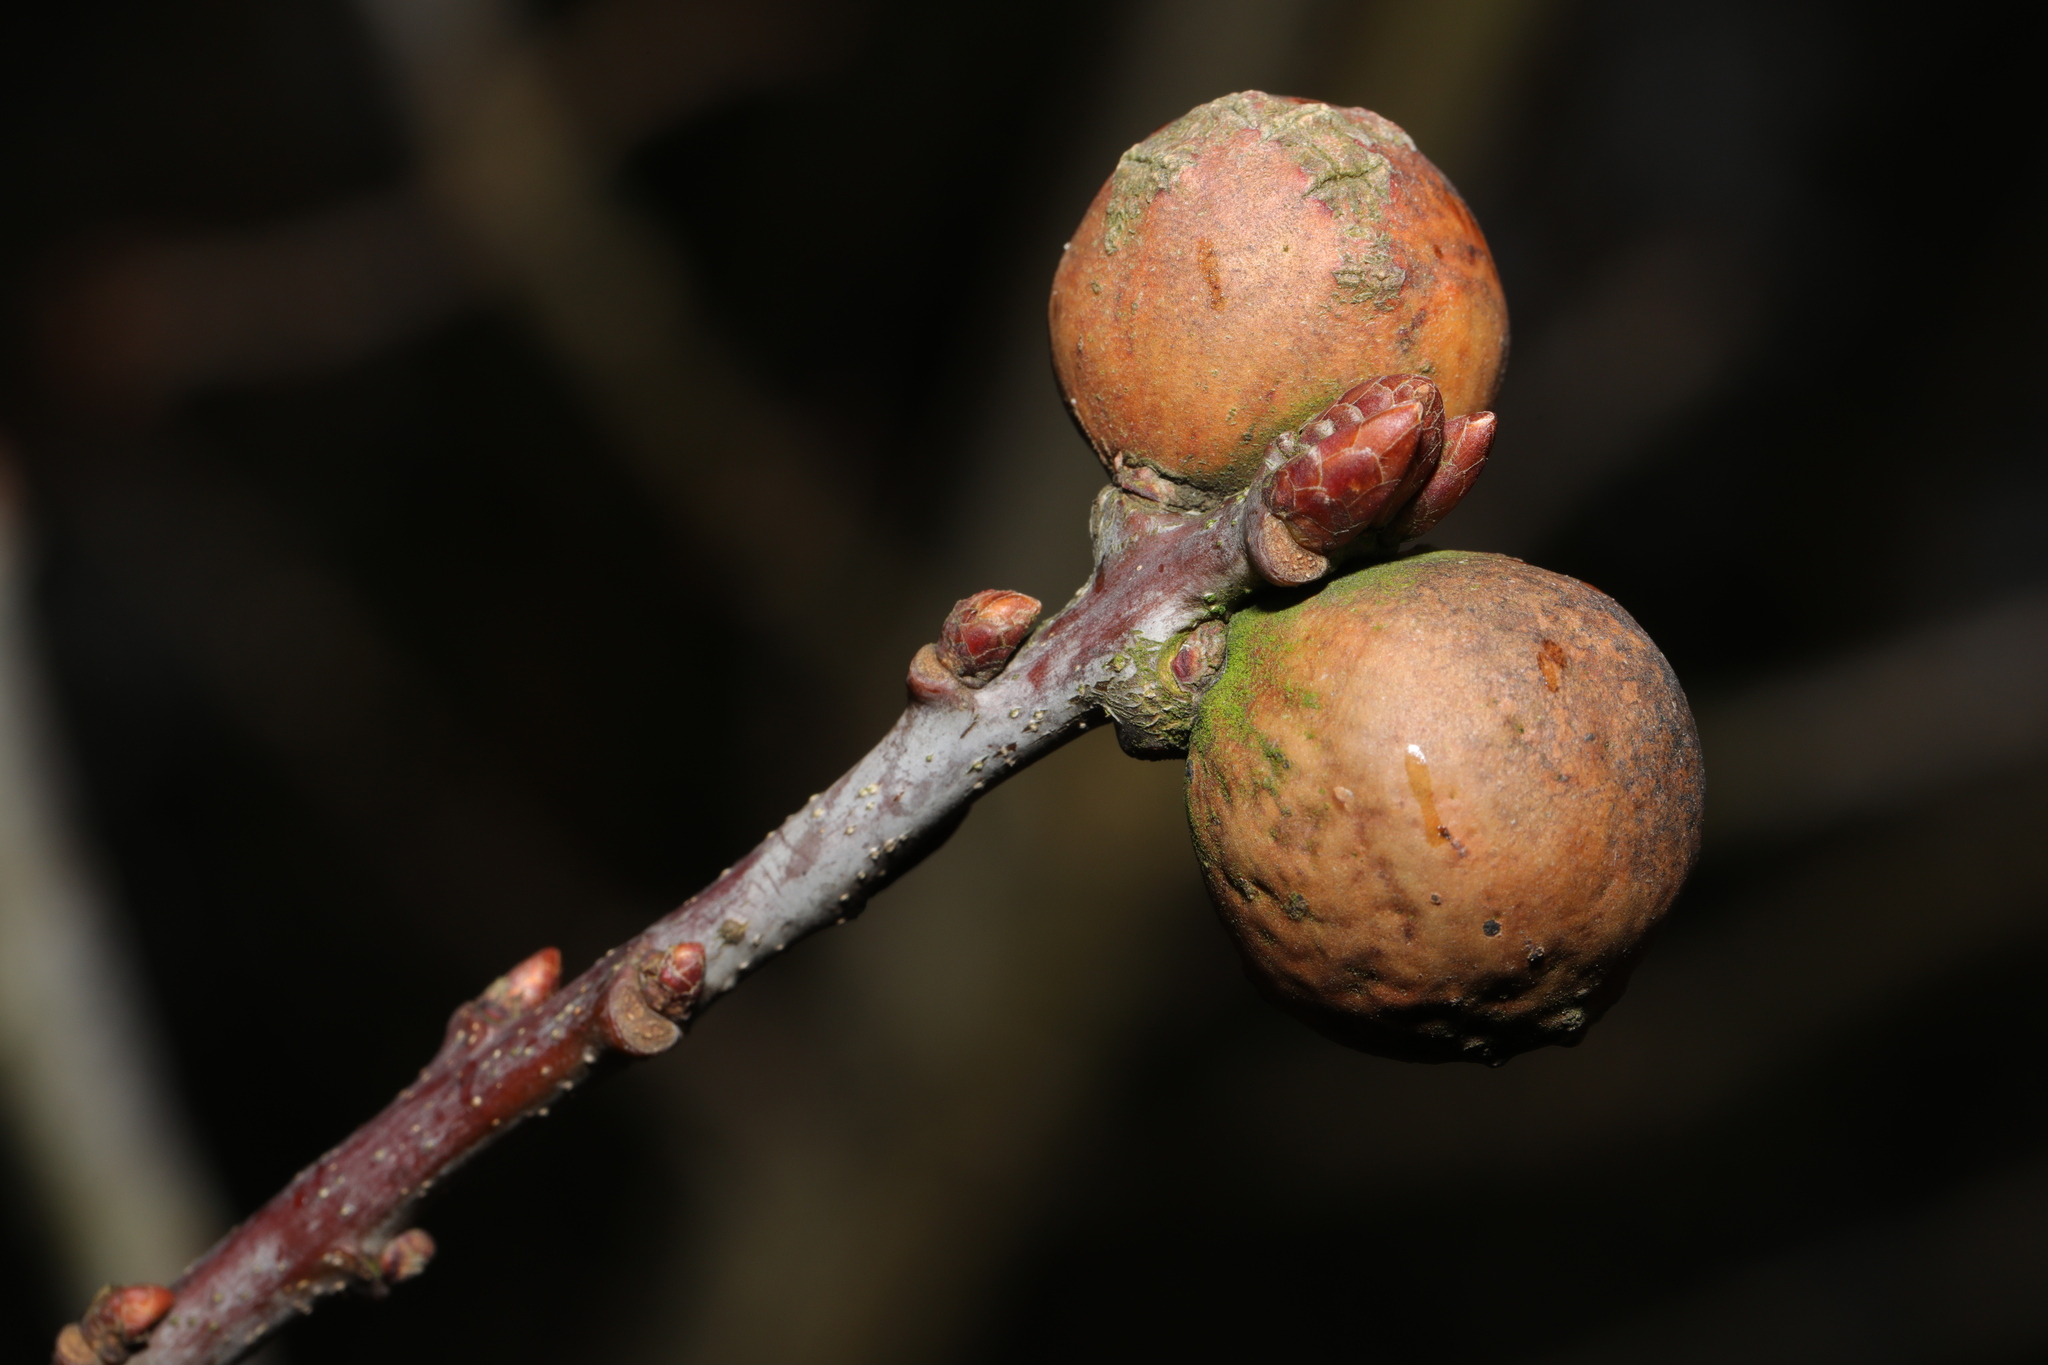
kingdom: Animalia
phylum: Arthropoda
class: Insecta
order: Hymenoptera
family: Cynipidae
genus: Andricus
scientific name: Andricus kollari
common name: Marble gall
